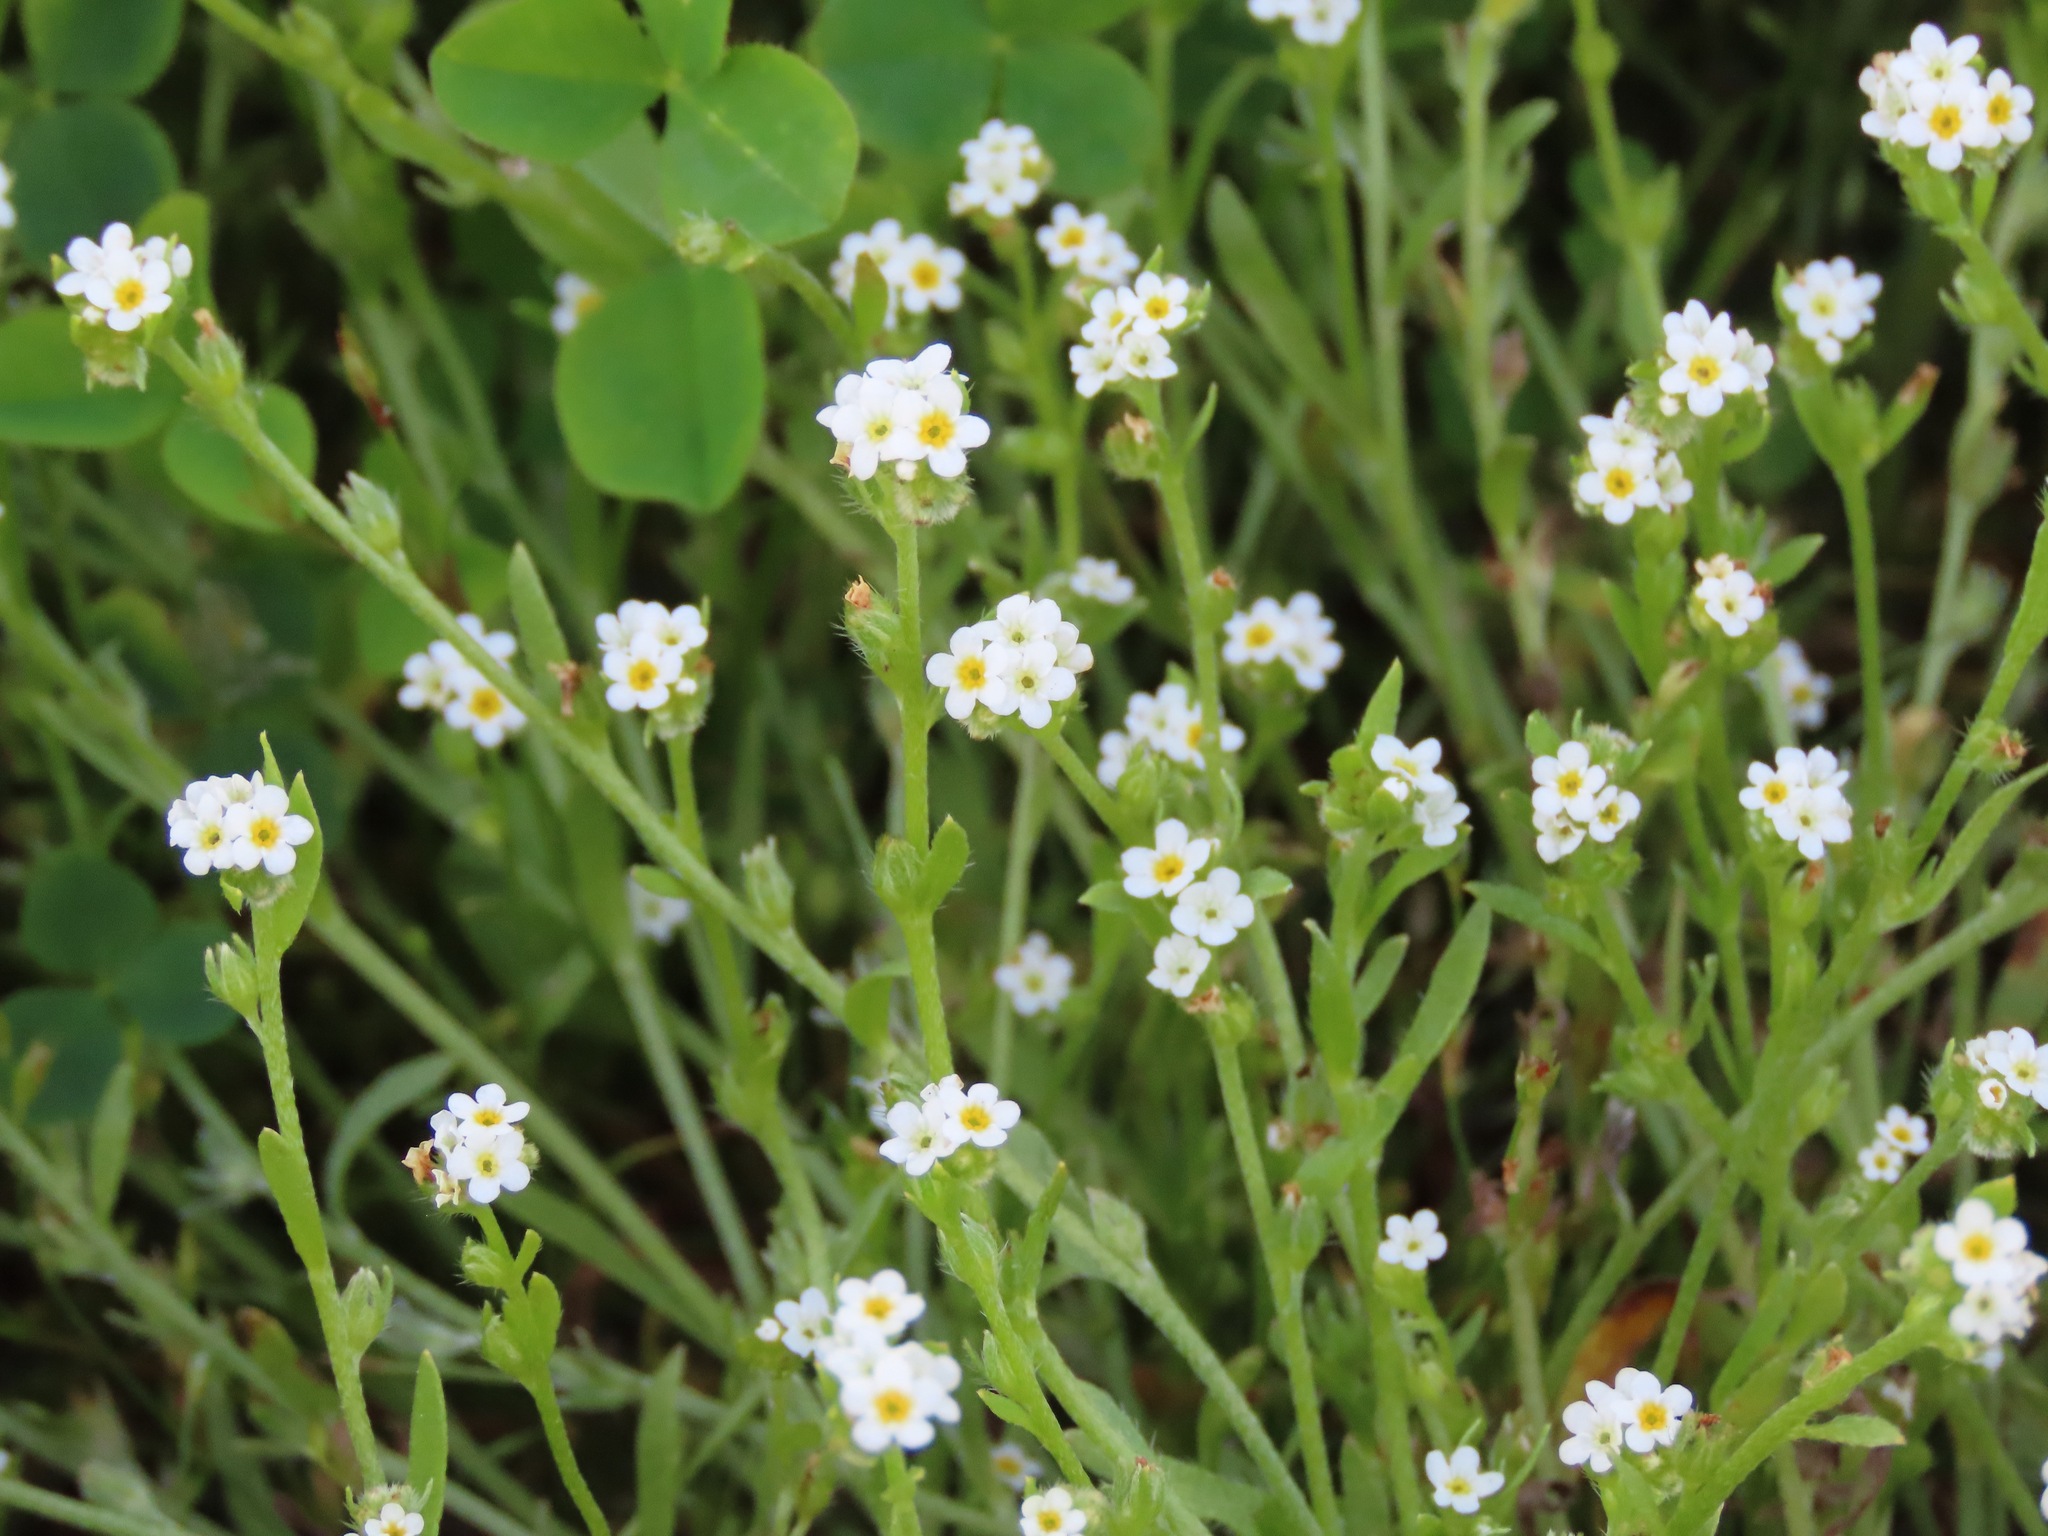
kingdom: Plantae
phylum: Tracheophyta
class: Magnoliopsida
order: Boraginales
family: Boraginaceae
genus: Plagiobothrys
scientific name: Plagiobothrys scouleri
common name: White forget-me-not
